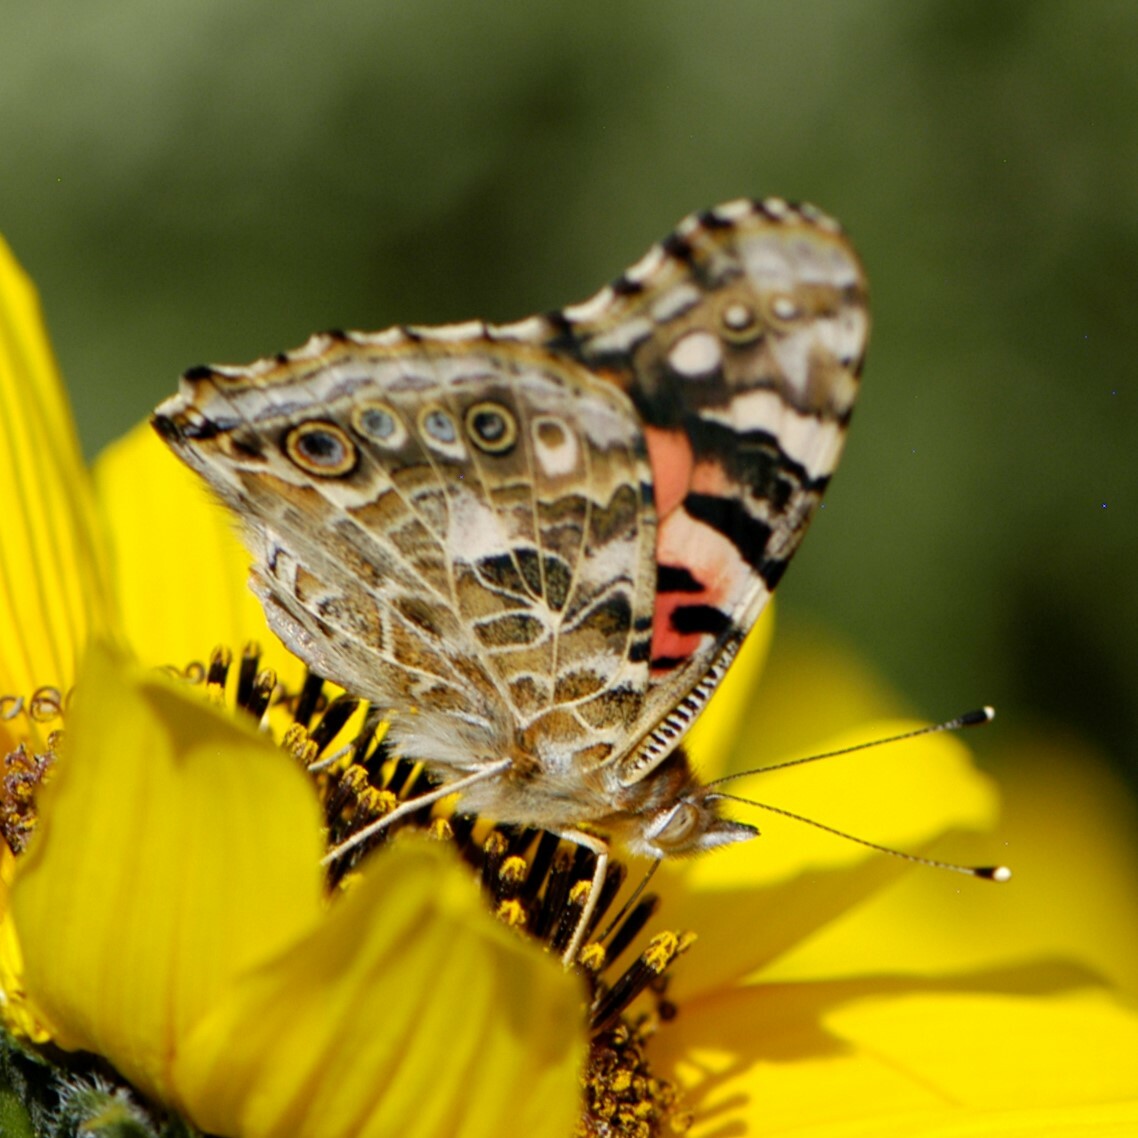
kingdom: Animalia
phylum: Arthropoda
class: Insecta
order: Lepidoptera
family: Nymphalidae
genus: Vanessa
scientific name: Vanessa cardui
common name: Painted lady
